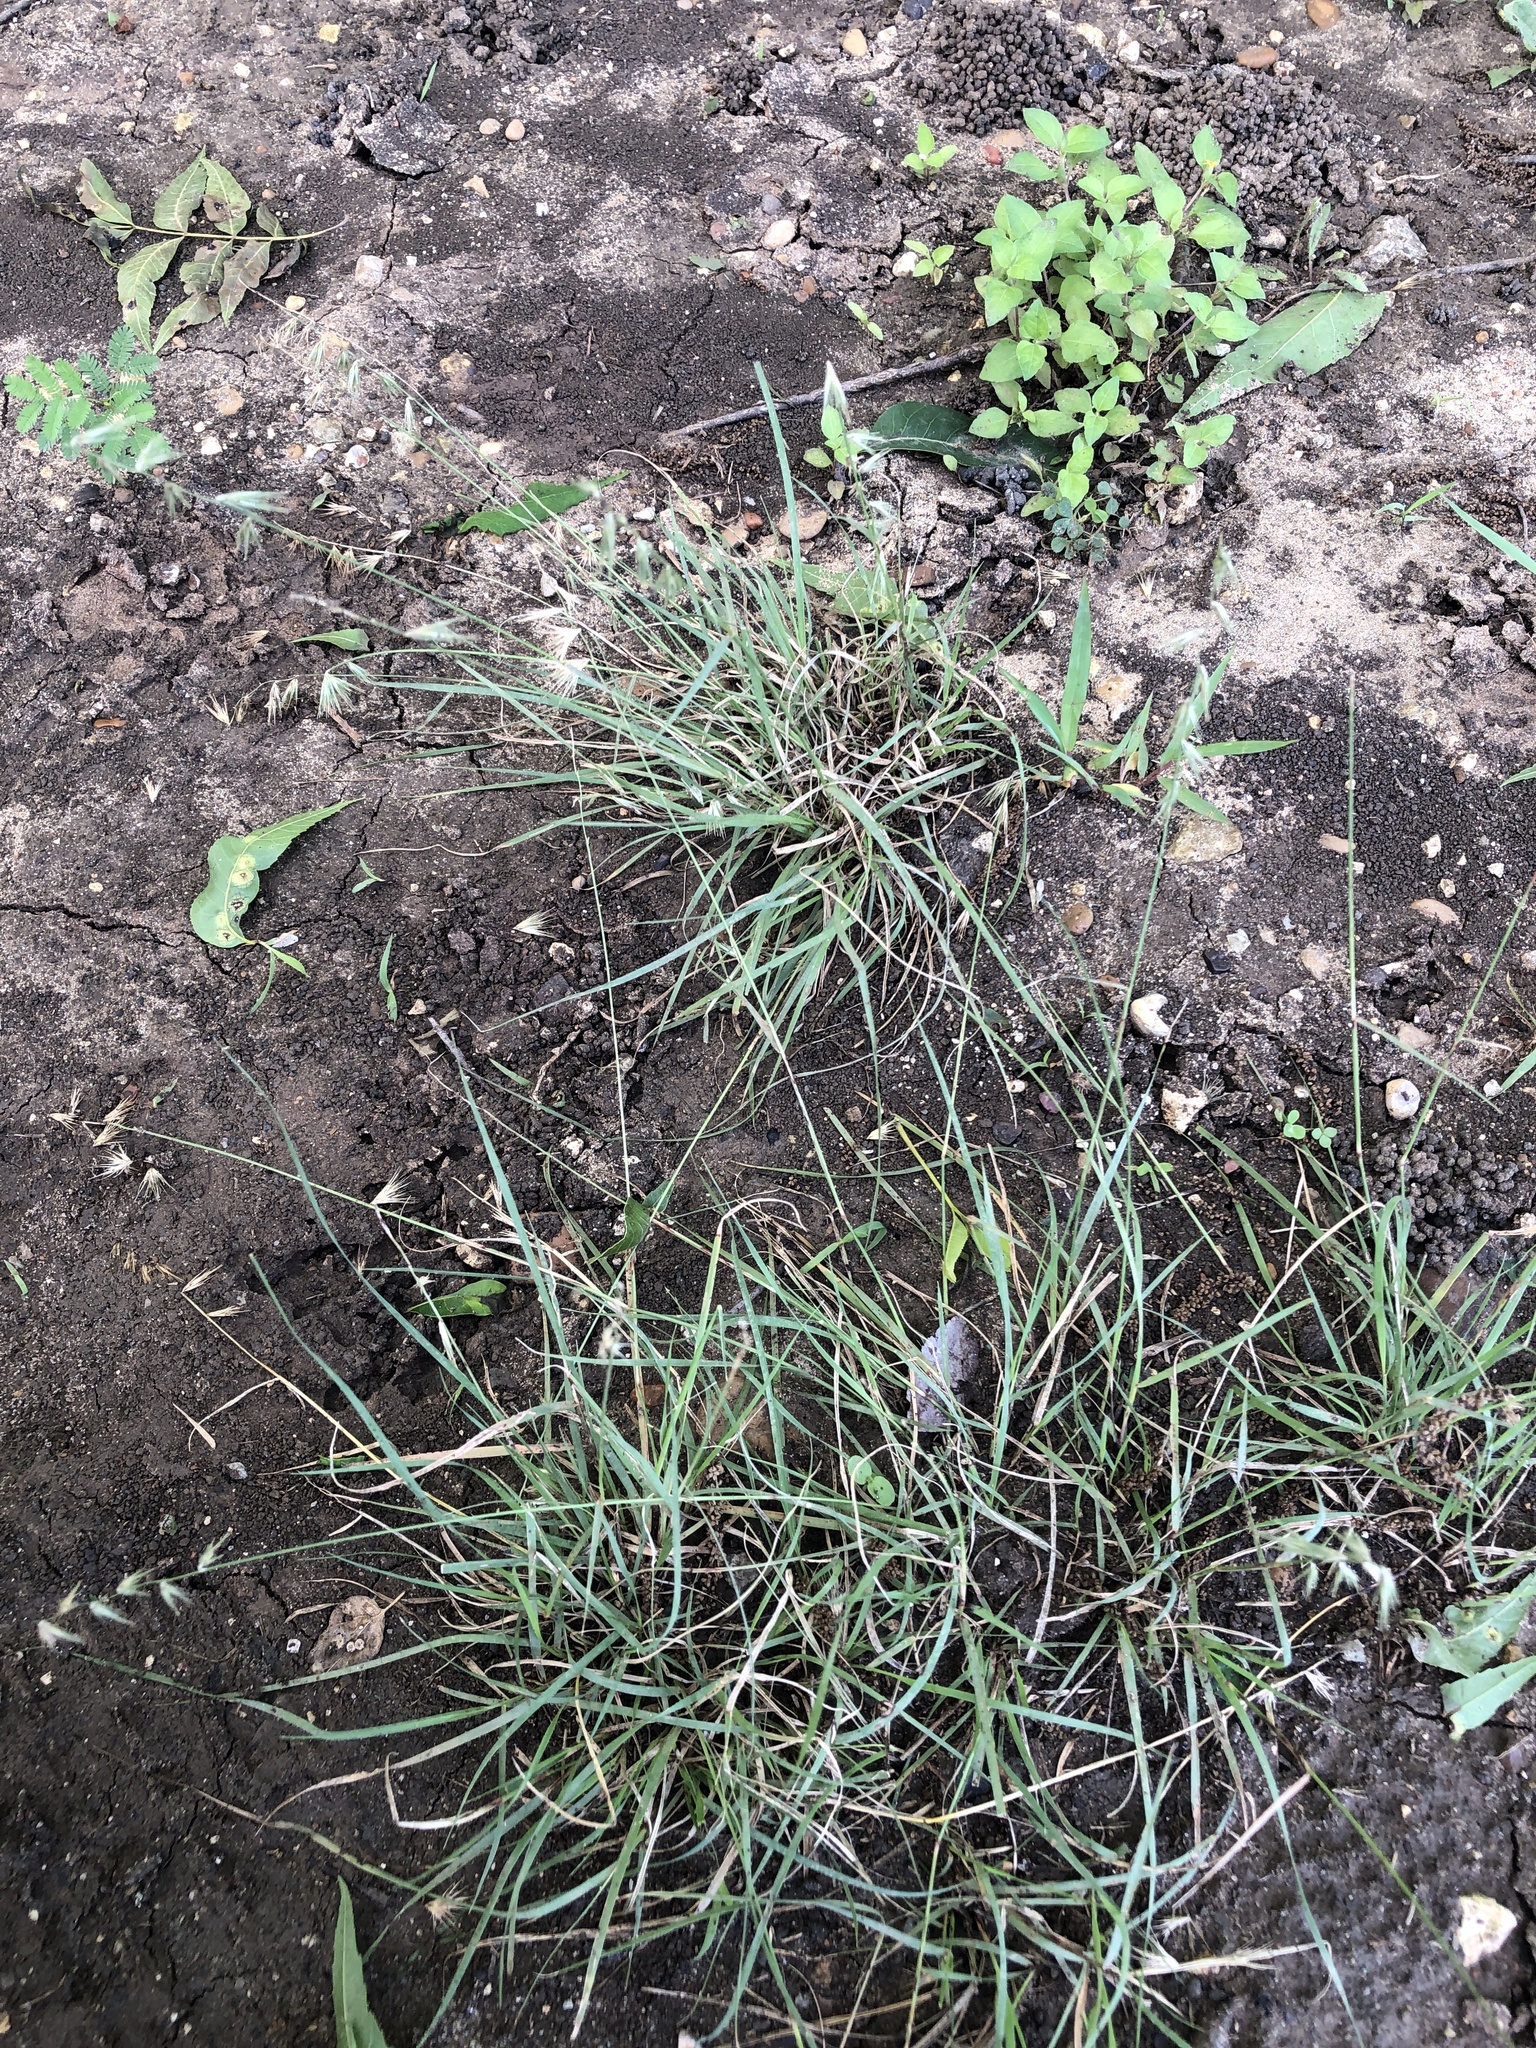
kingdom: Plantae
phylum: Tracheophyta
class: Liliopsida
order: Poales
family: Poaceae
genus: Bouteloua
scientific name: Bouteloua rigidiseta
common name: Texas grama
